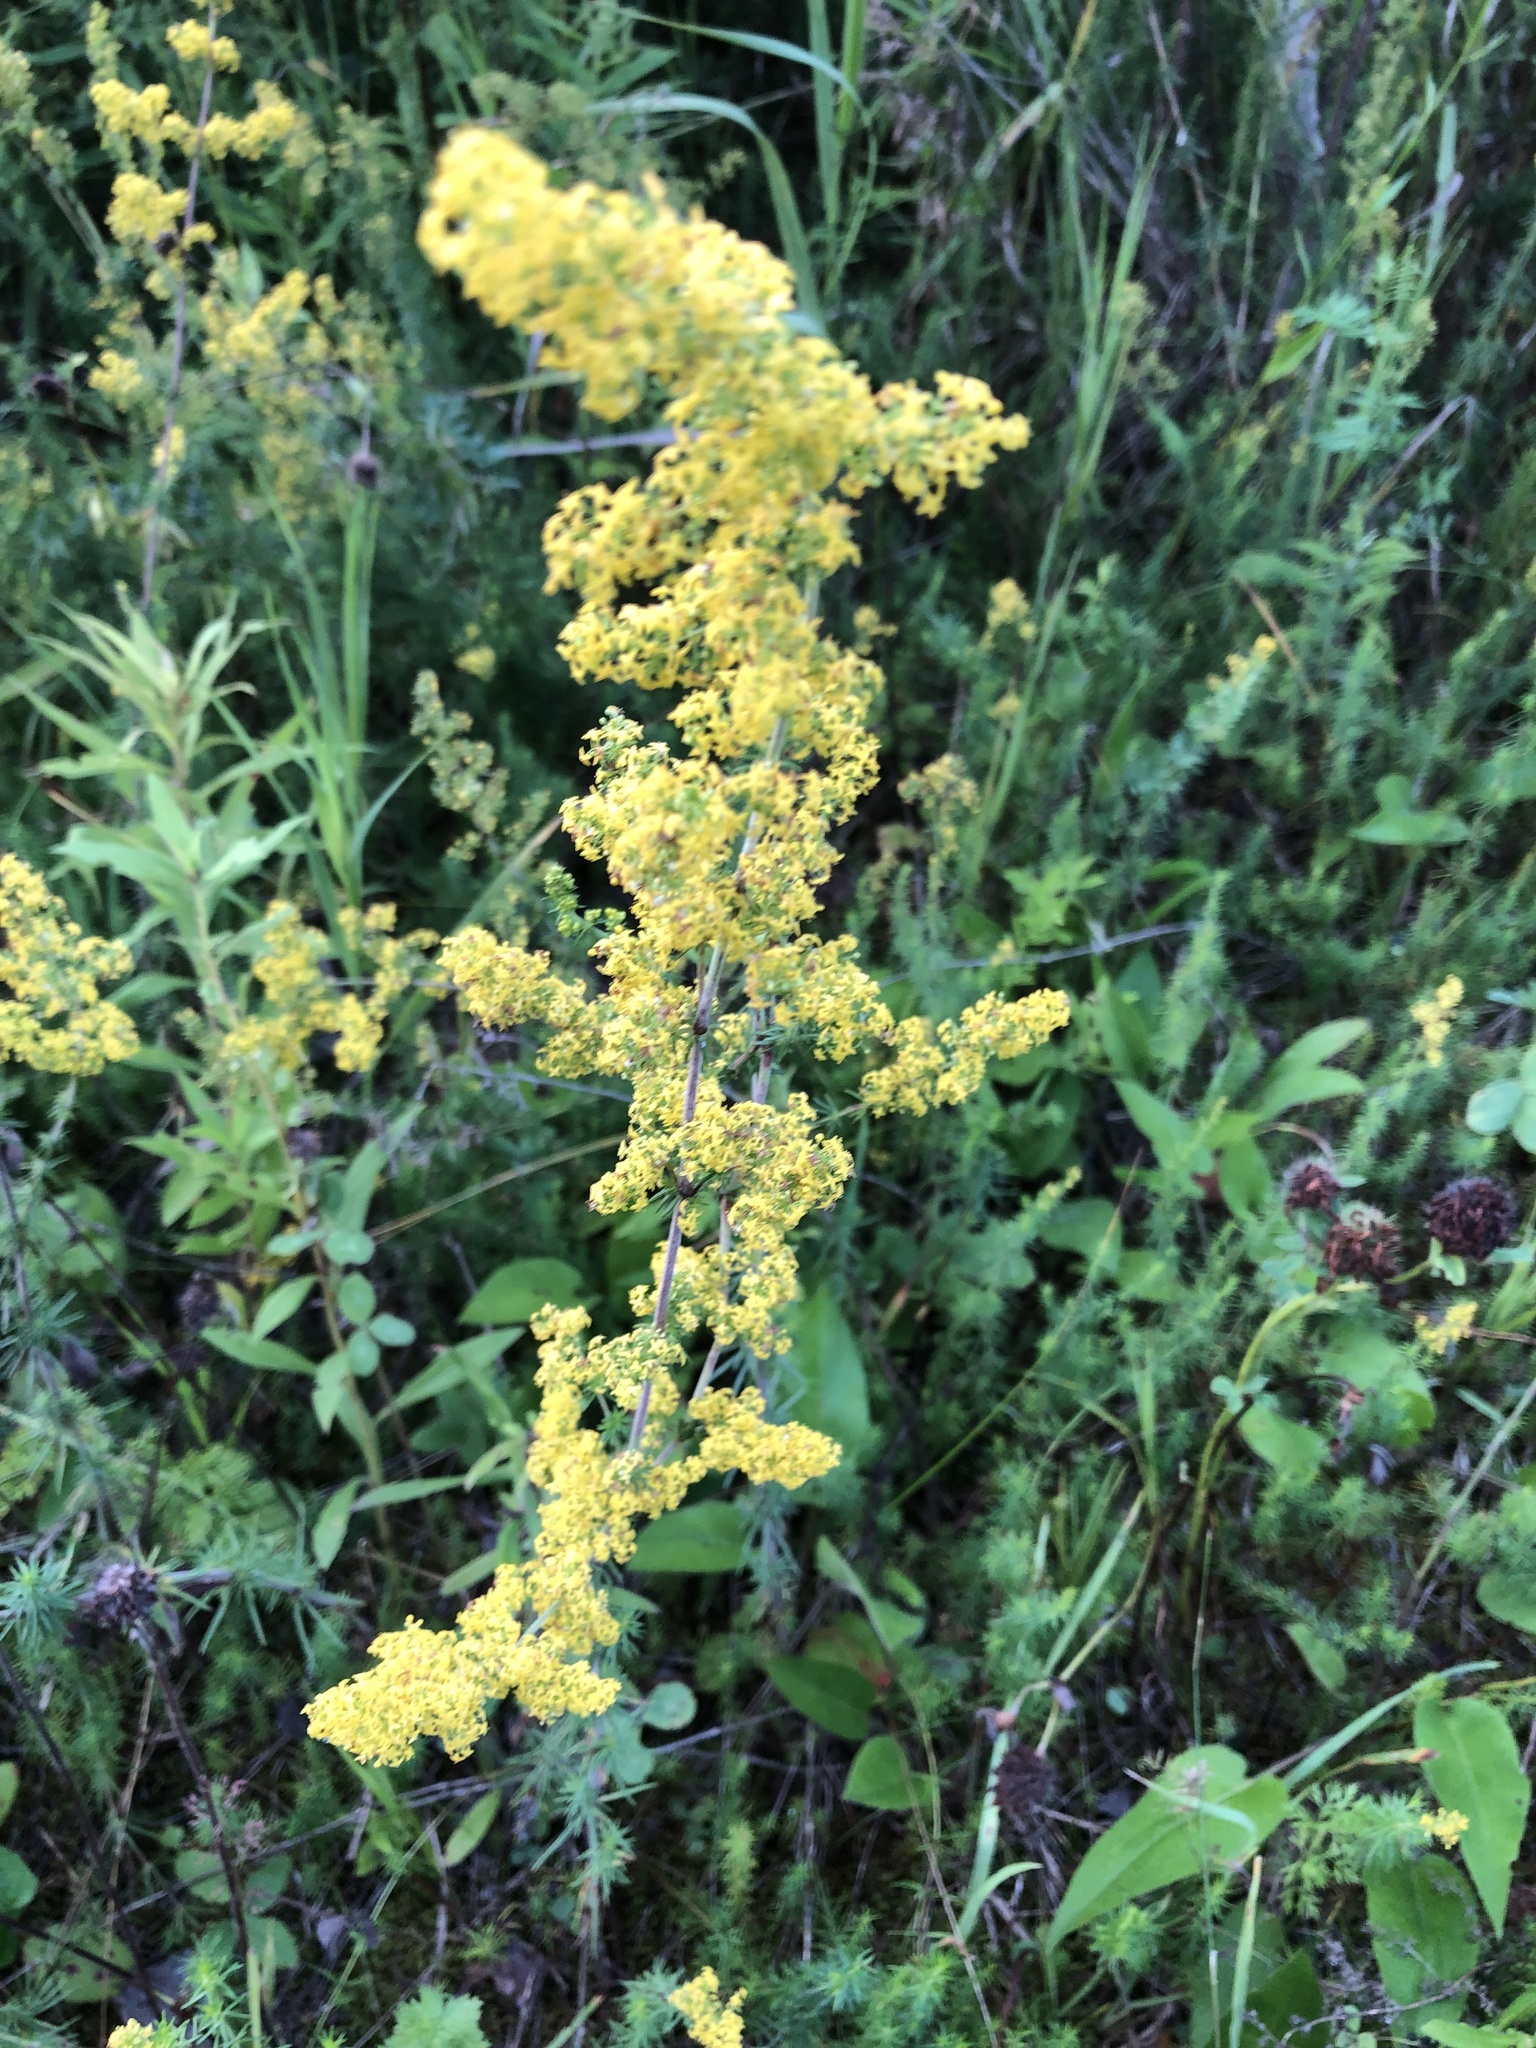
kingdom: Plantae
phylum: Tracheophyta
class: Magnoliopsida
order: Gentianales
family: Rubiaceae
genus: Galium
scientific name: Galium verum
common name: Lady's bedstraw
